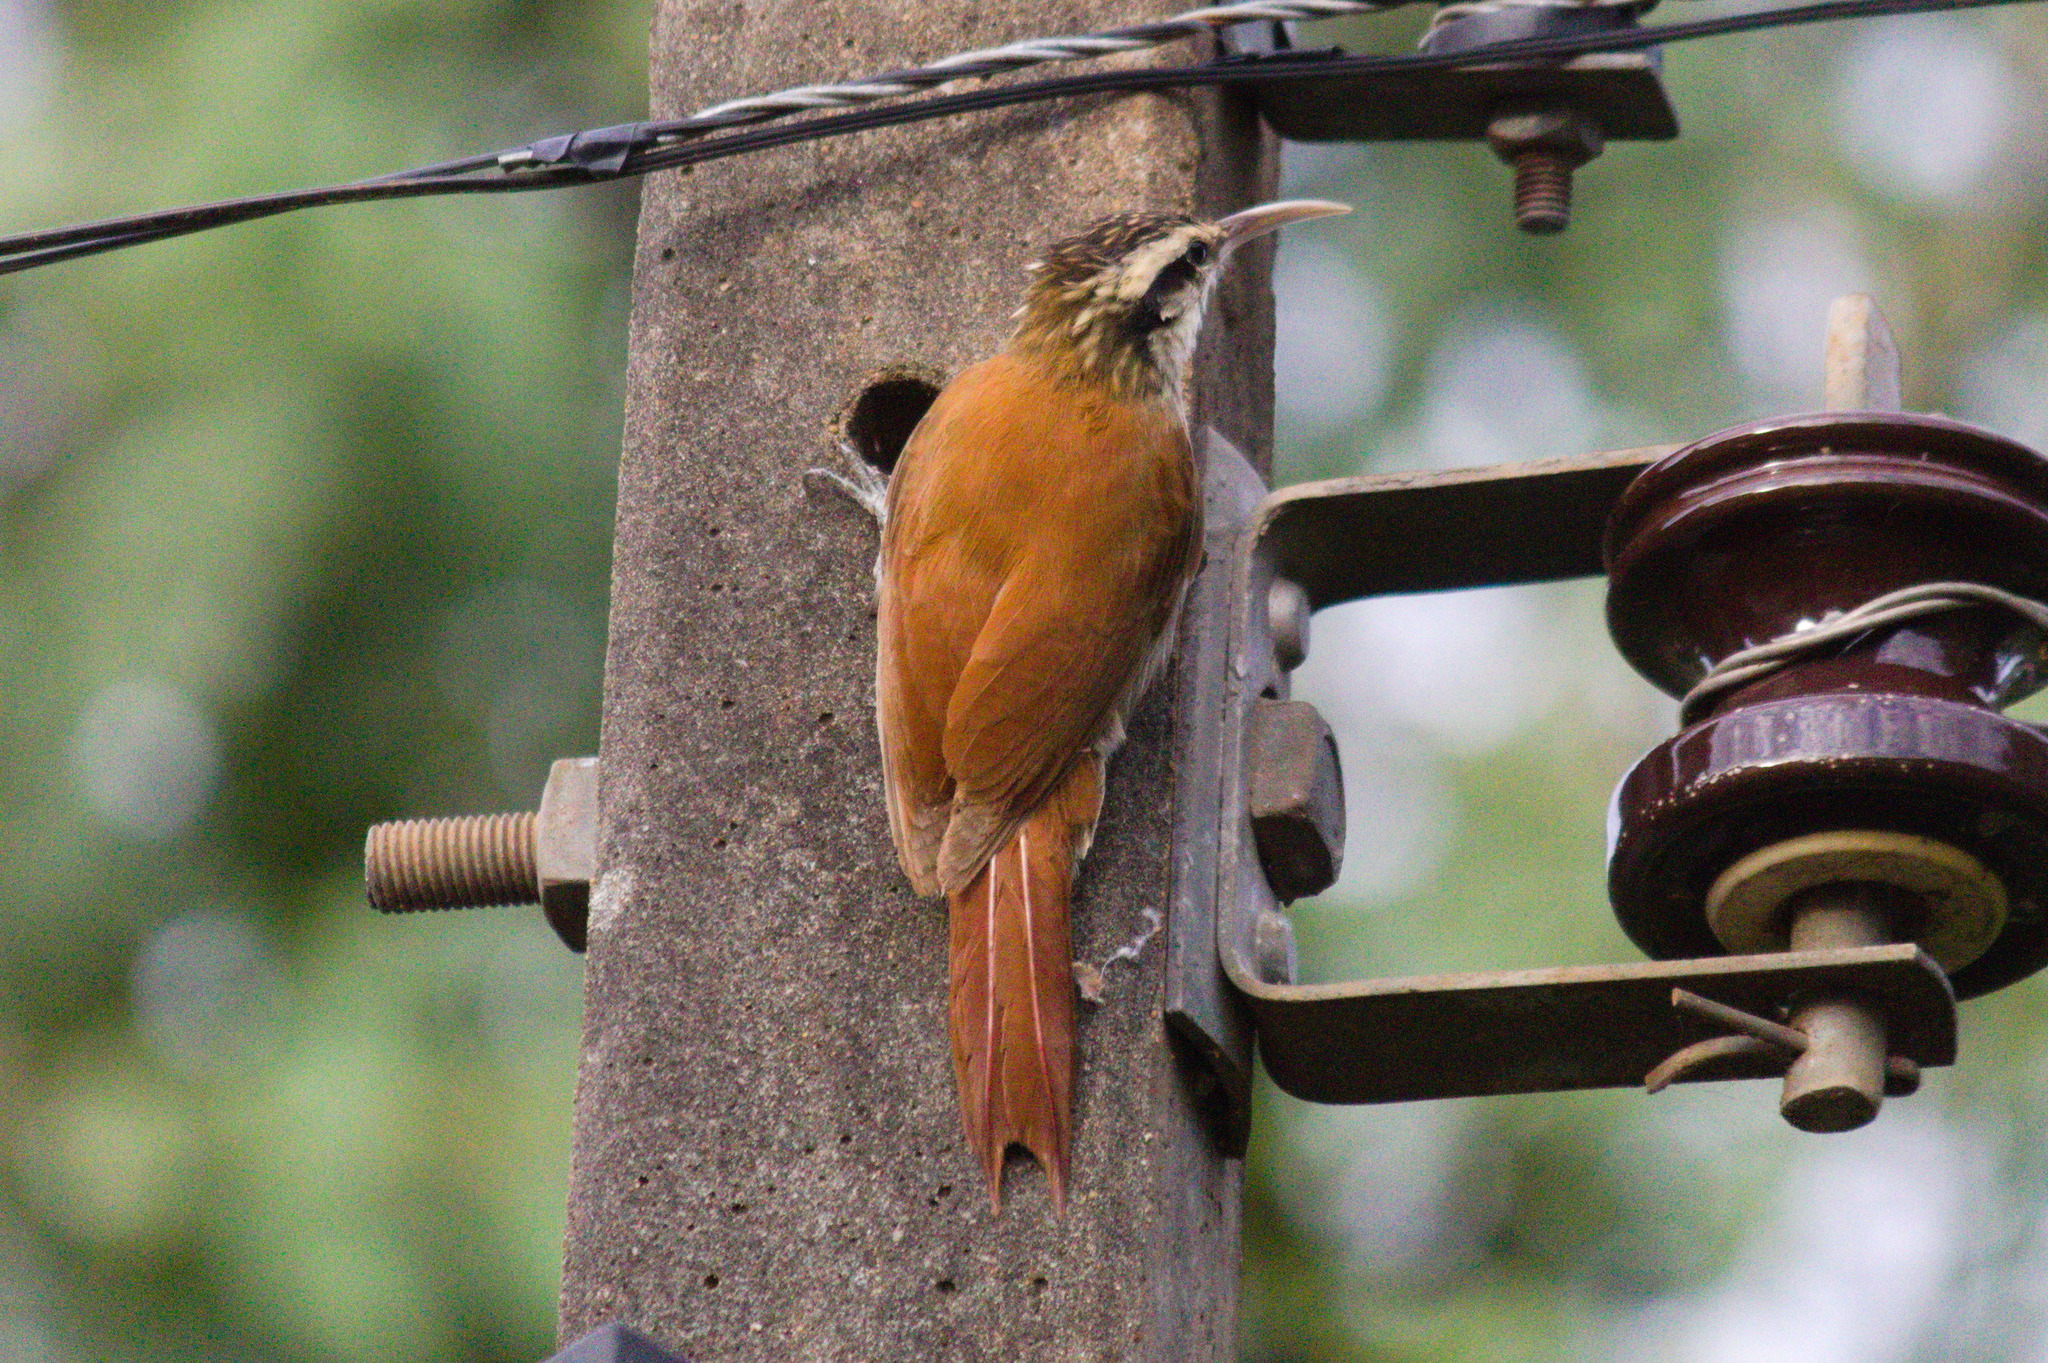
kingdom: Animalia
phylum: Chordata
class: Aves
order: Passeriformes
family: Furnariidae
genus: Lepidocolaptes
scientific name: Lepidocolaptes angustirostris
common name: Narrow-billed woodcreeper
